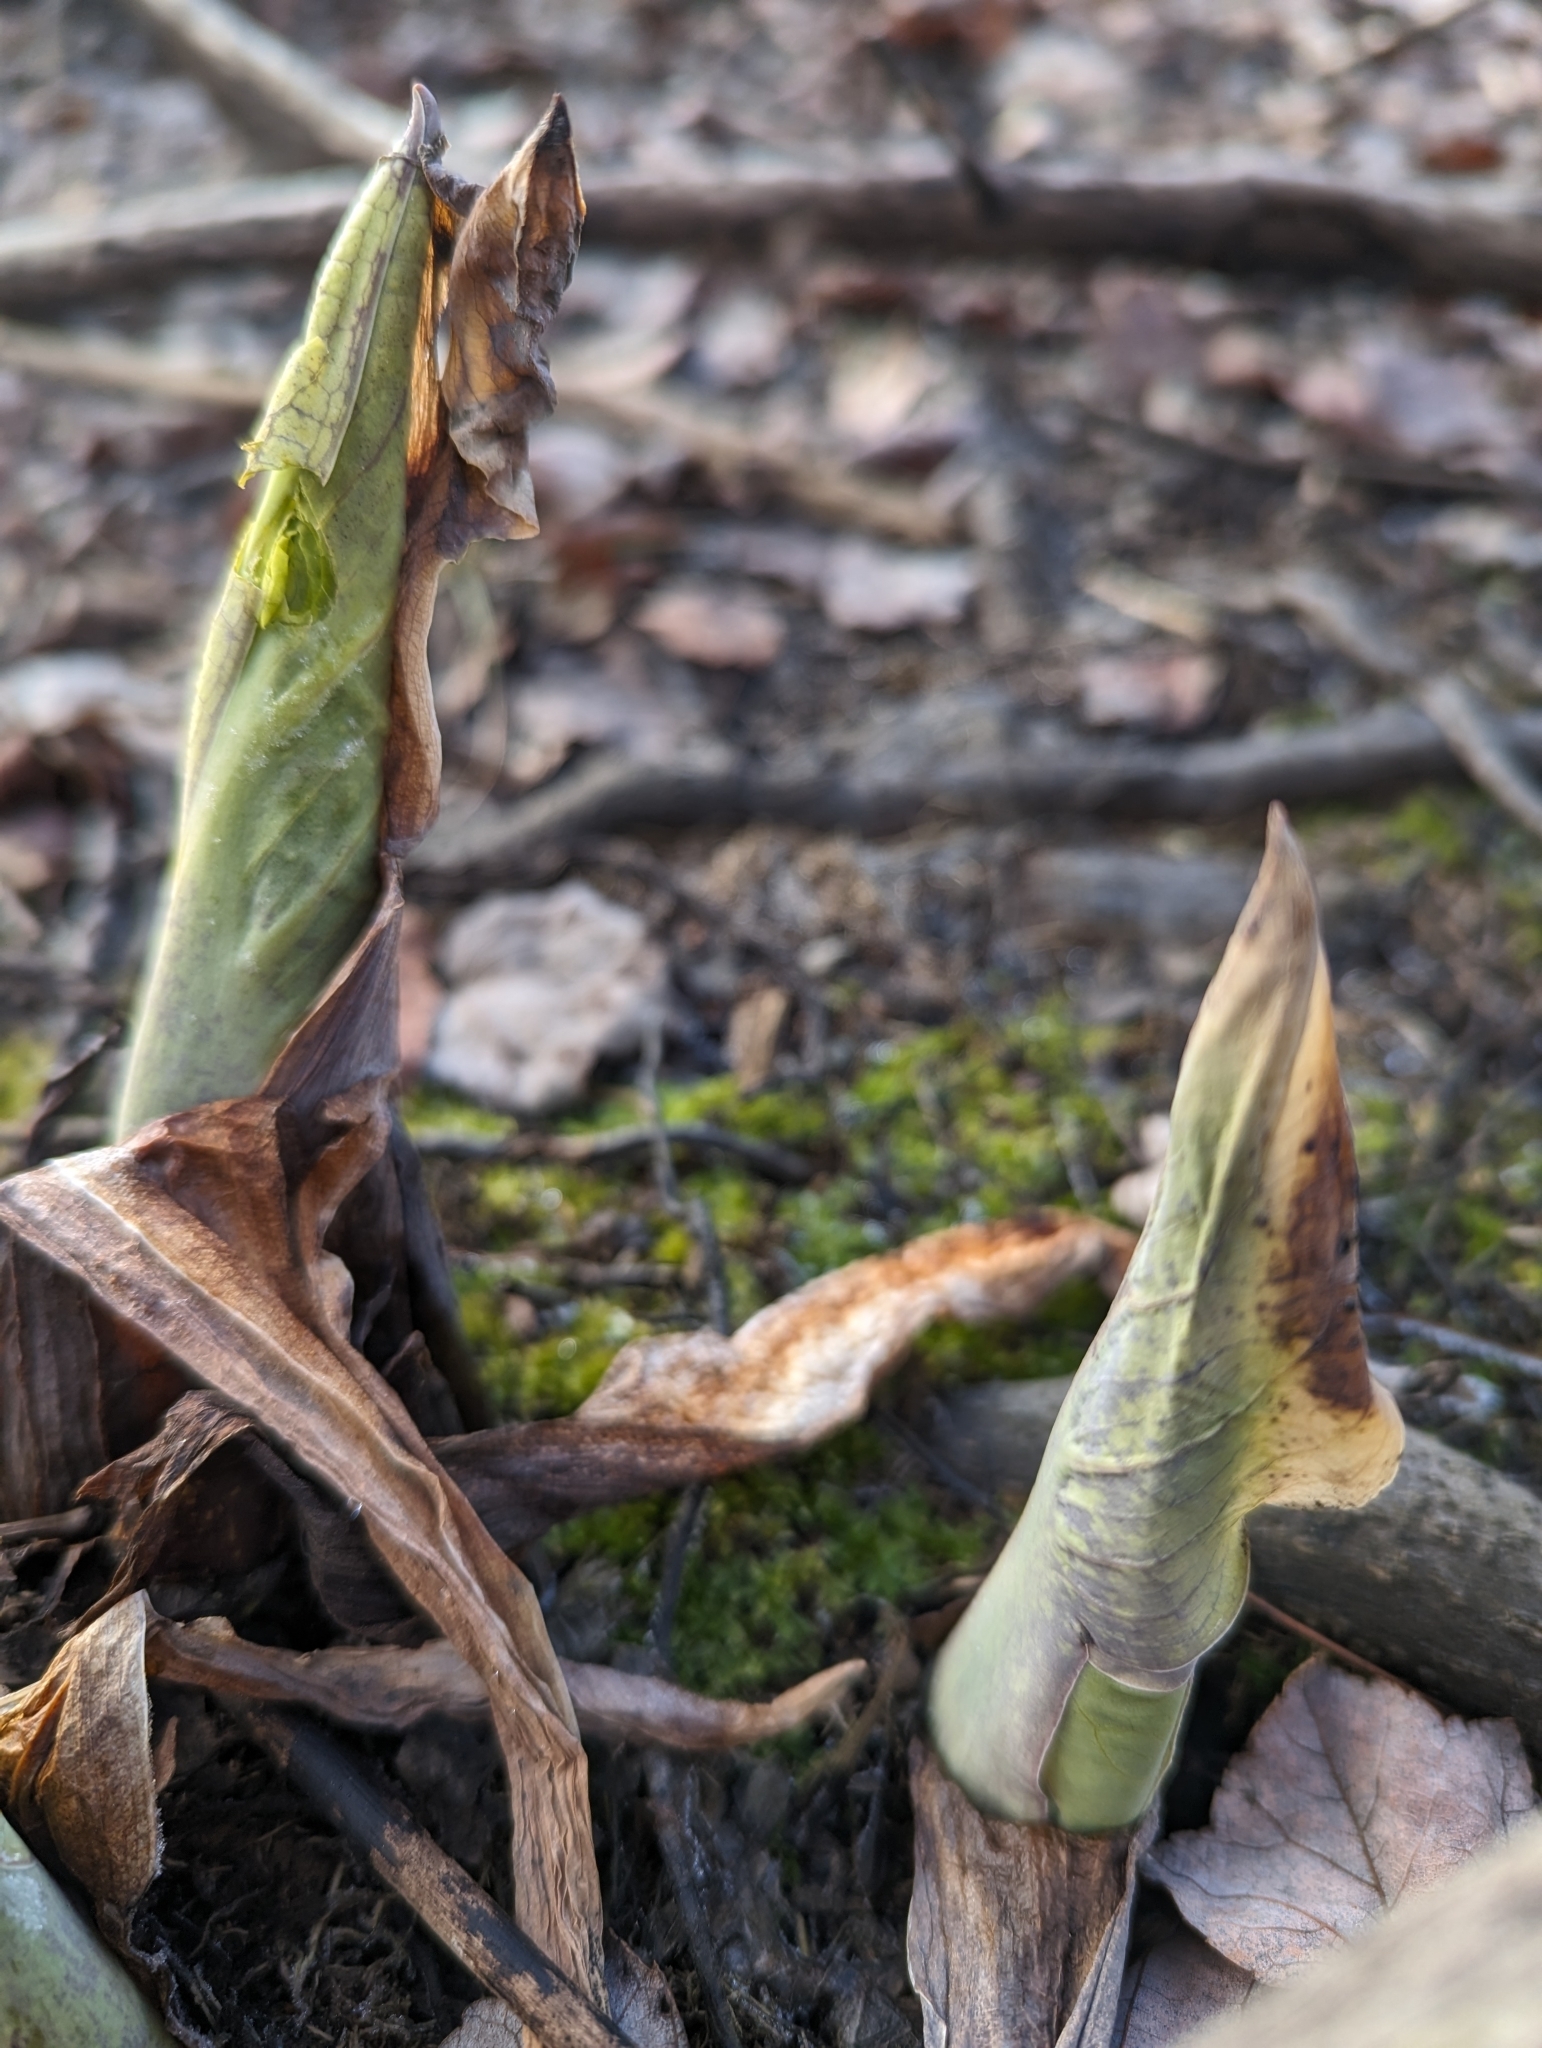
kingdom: Plantae
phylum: Tracheophyta
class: Liliopsida
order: Alismatales
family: Araceae
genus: Symplocarpus
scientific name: Symplocarpus foetidus
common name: Eastern skunk cabbage
